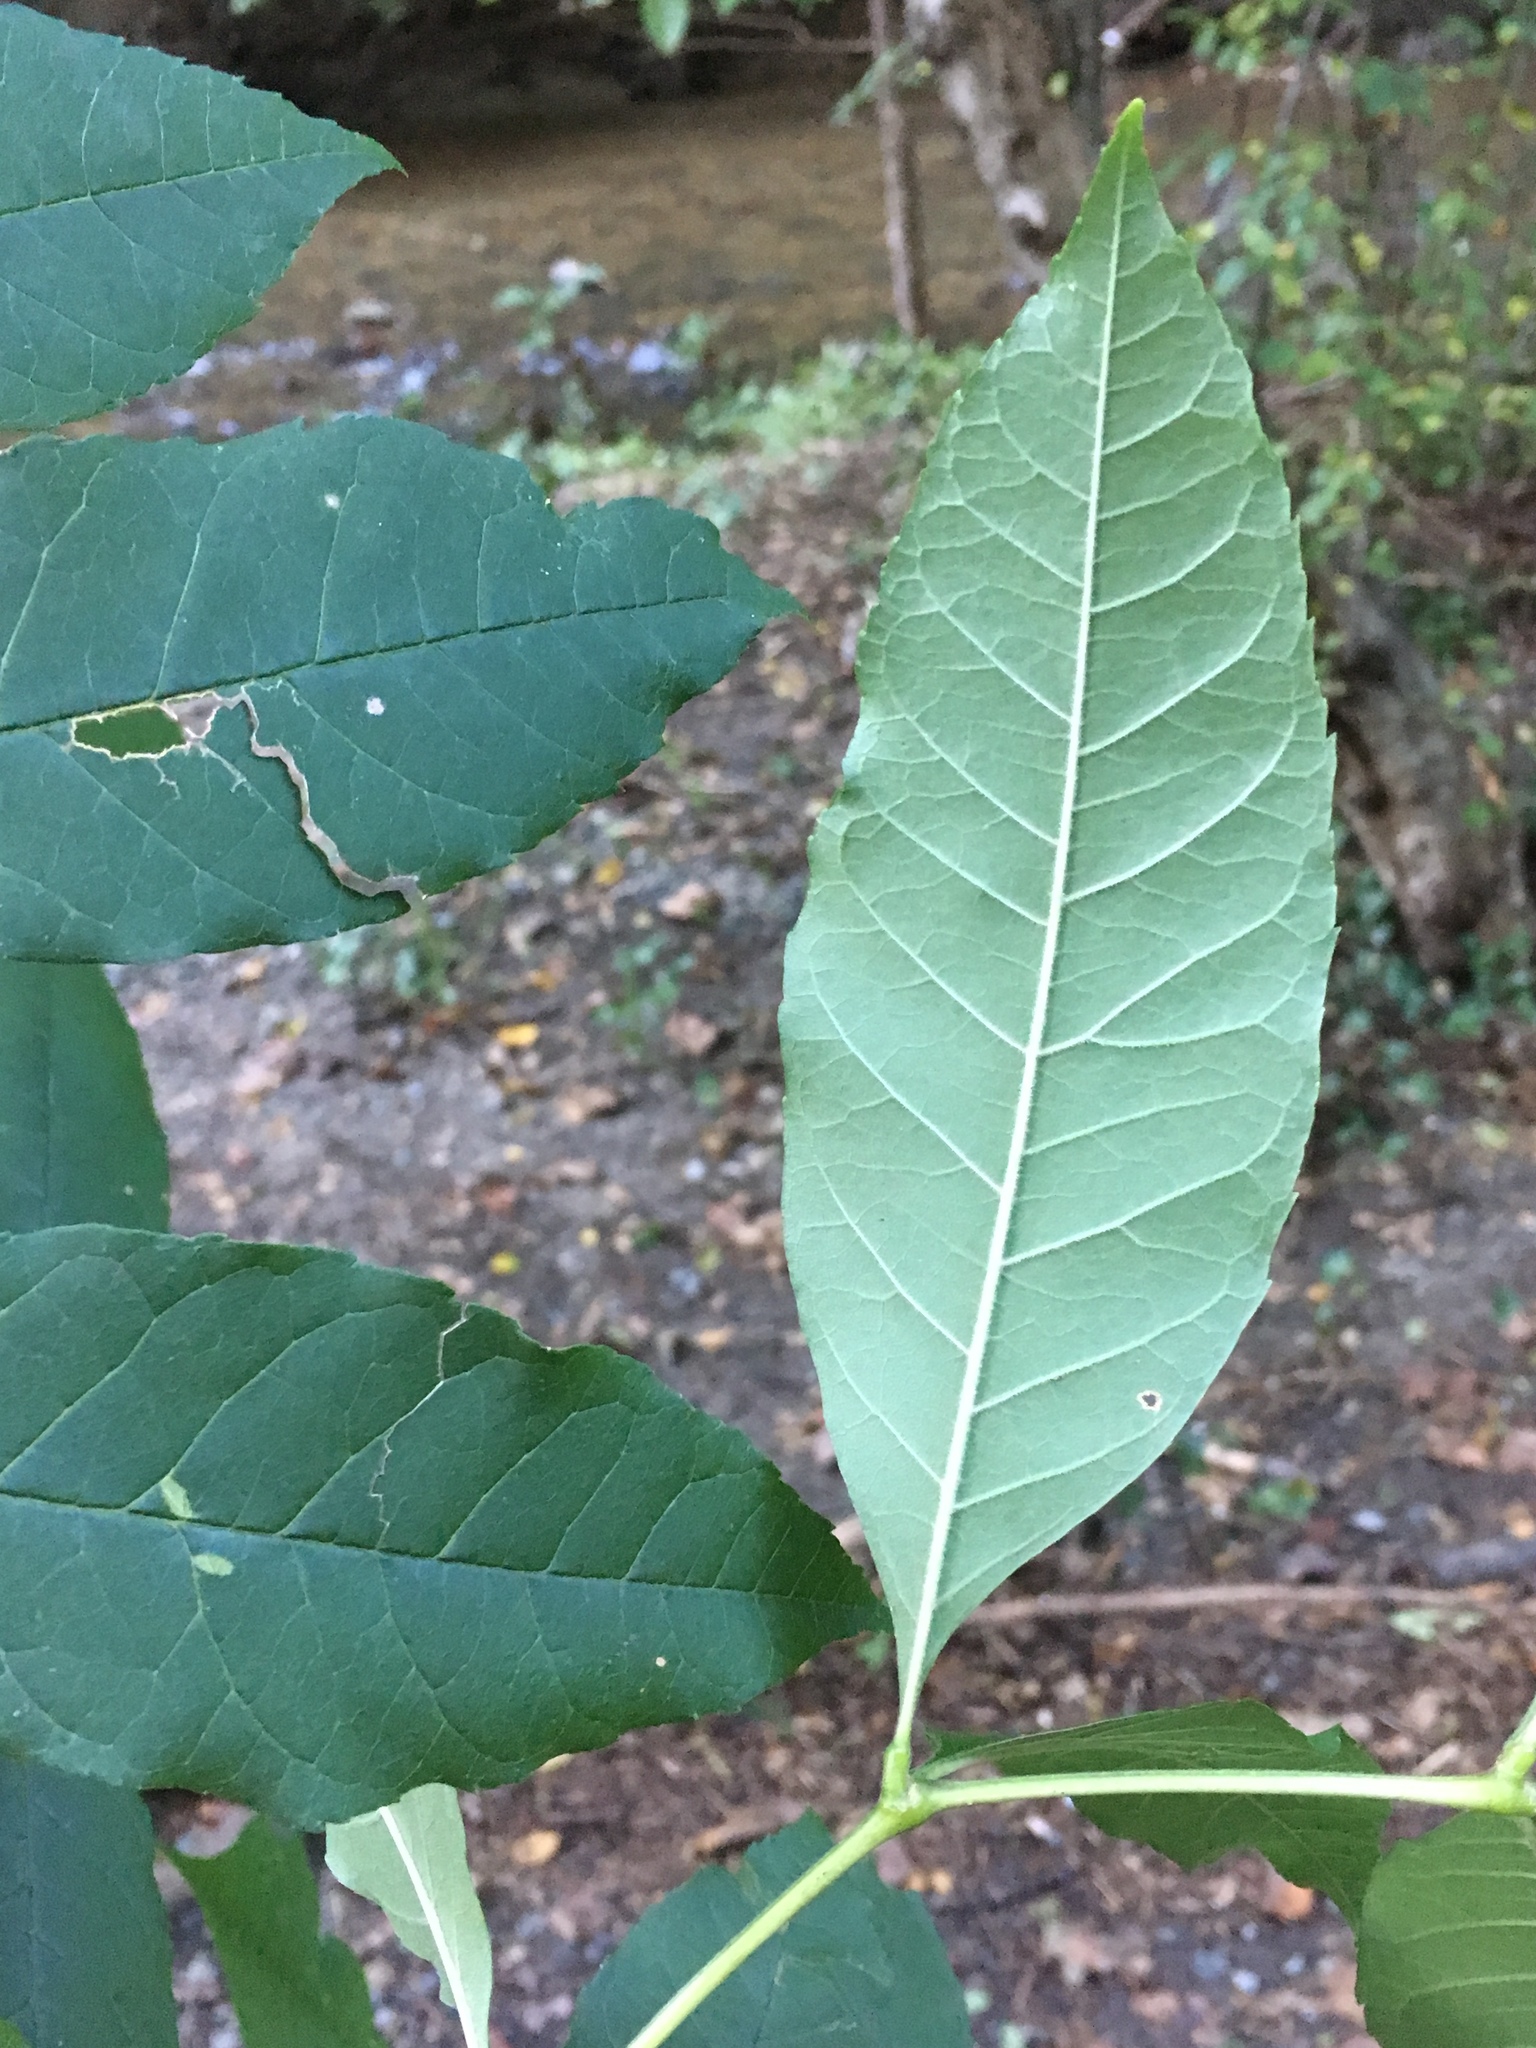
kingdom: Plantae
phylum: Tracheophyta
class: Magnoliopsida
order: Lamiales
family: Oleaceae
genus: Fraxinus
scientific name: Fraxinus pennsylvanica
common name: Green ash
